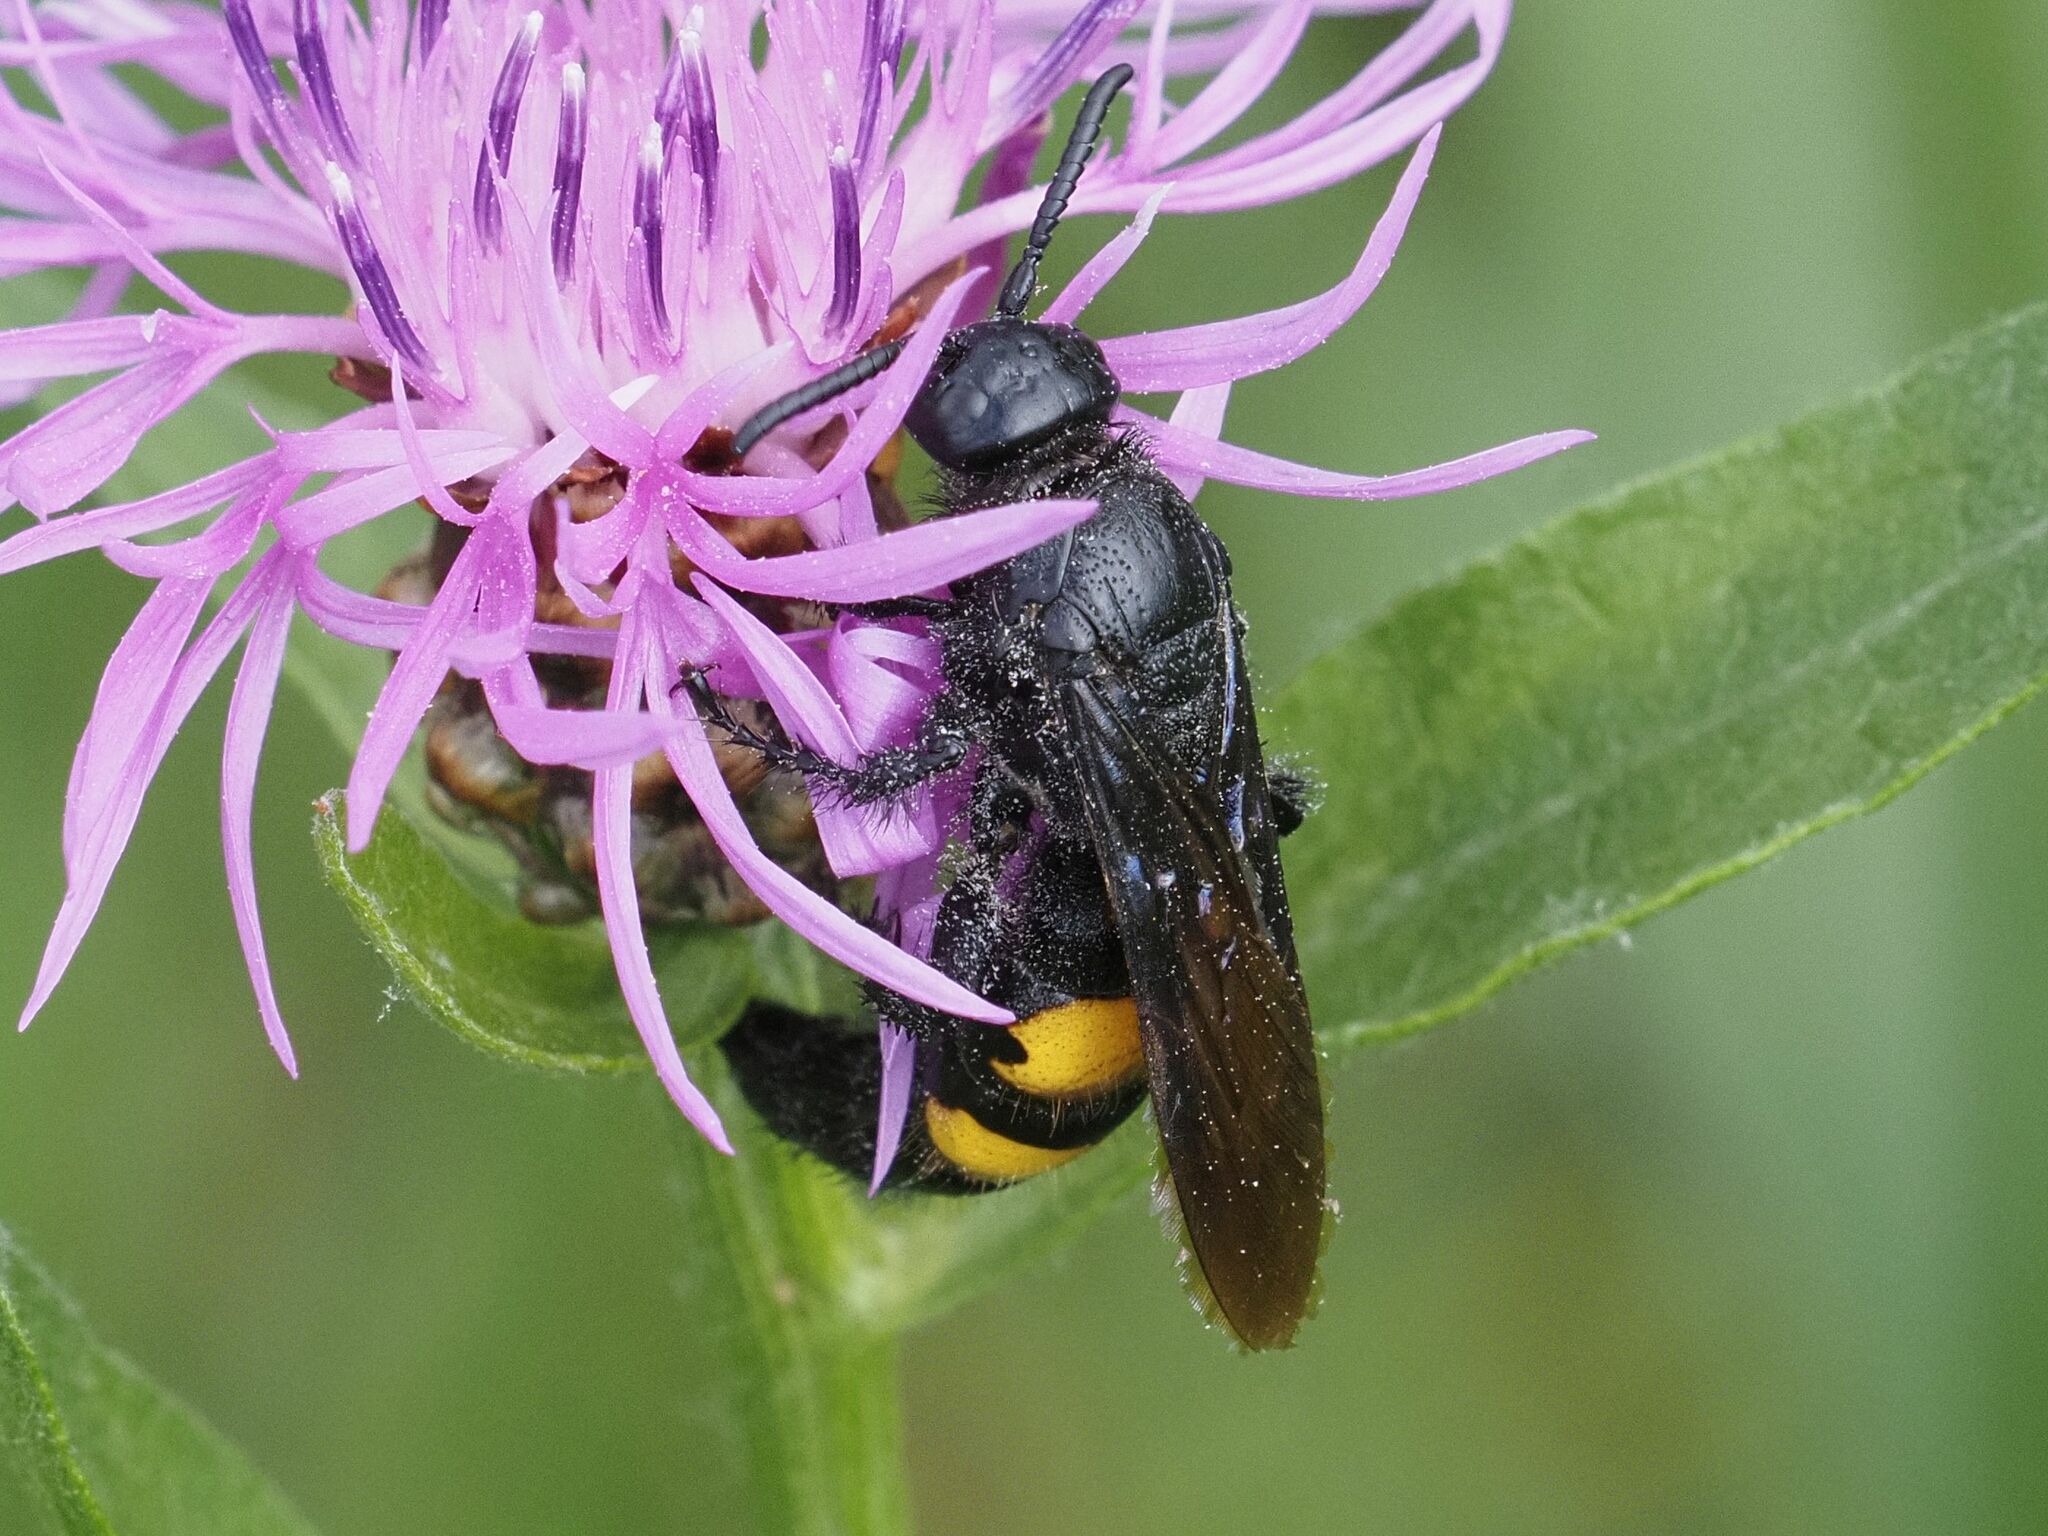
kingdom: Animalia
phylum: Arthropoda
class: Insecta
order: Hymenoptera
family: Scoliidae
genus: Scolia
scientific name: Scolia hirta
